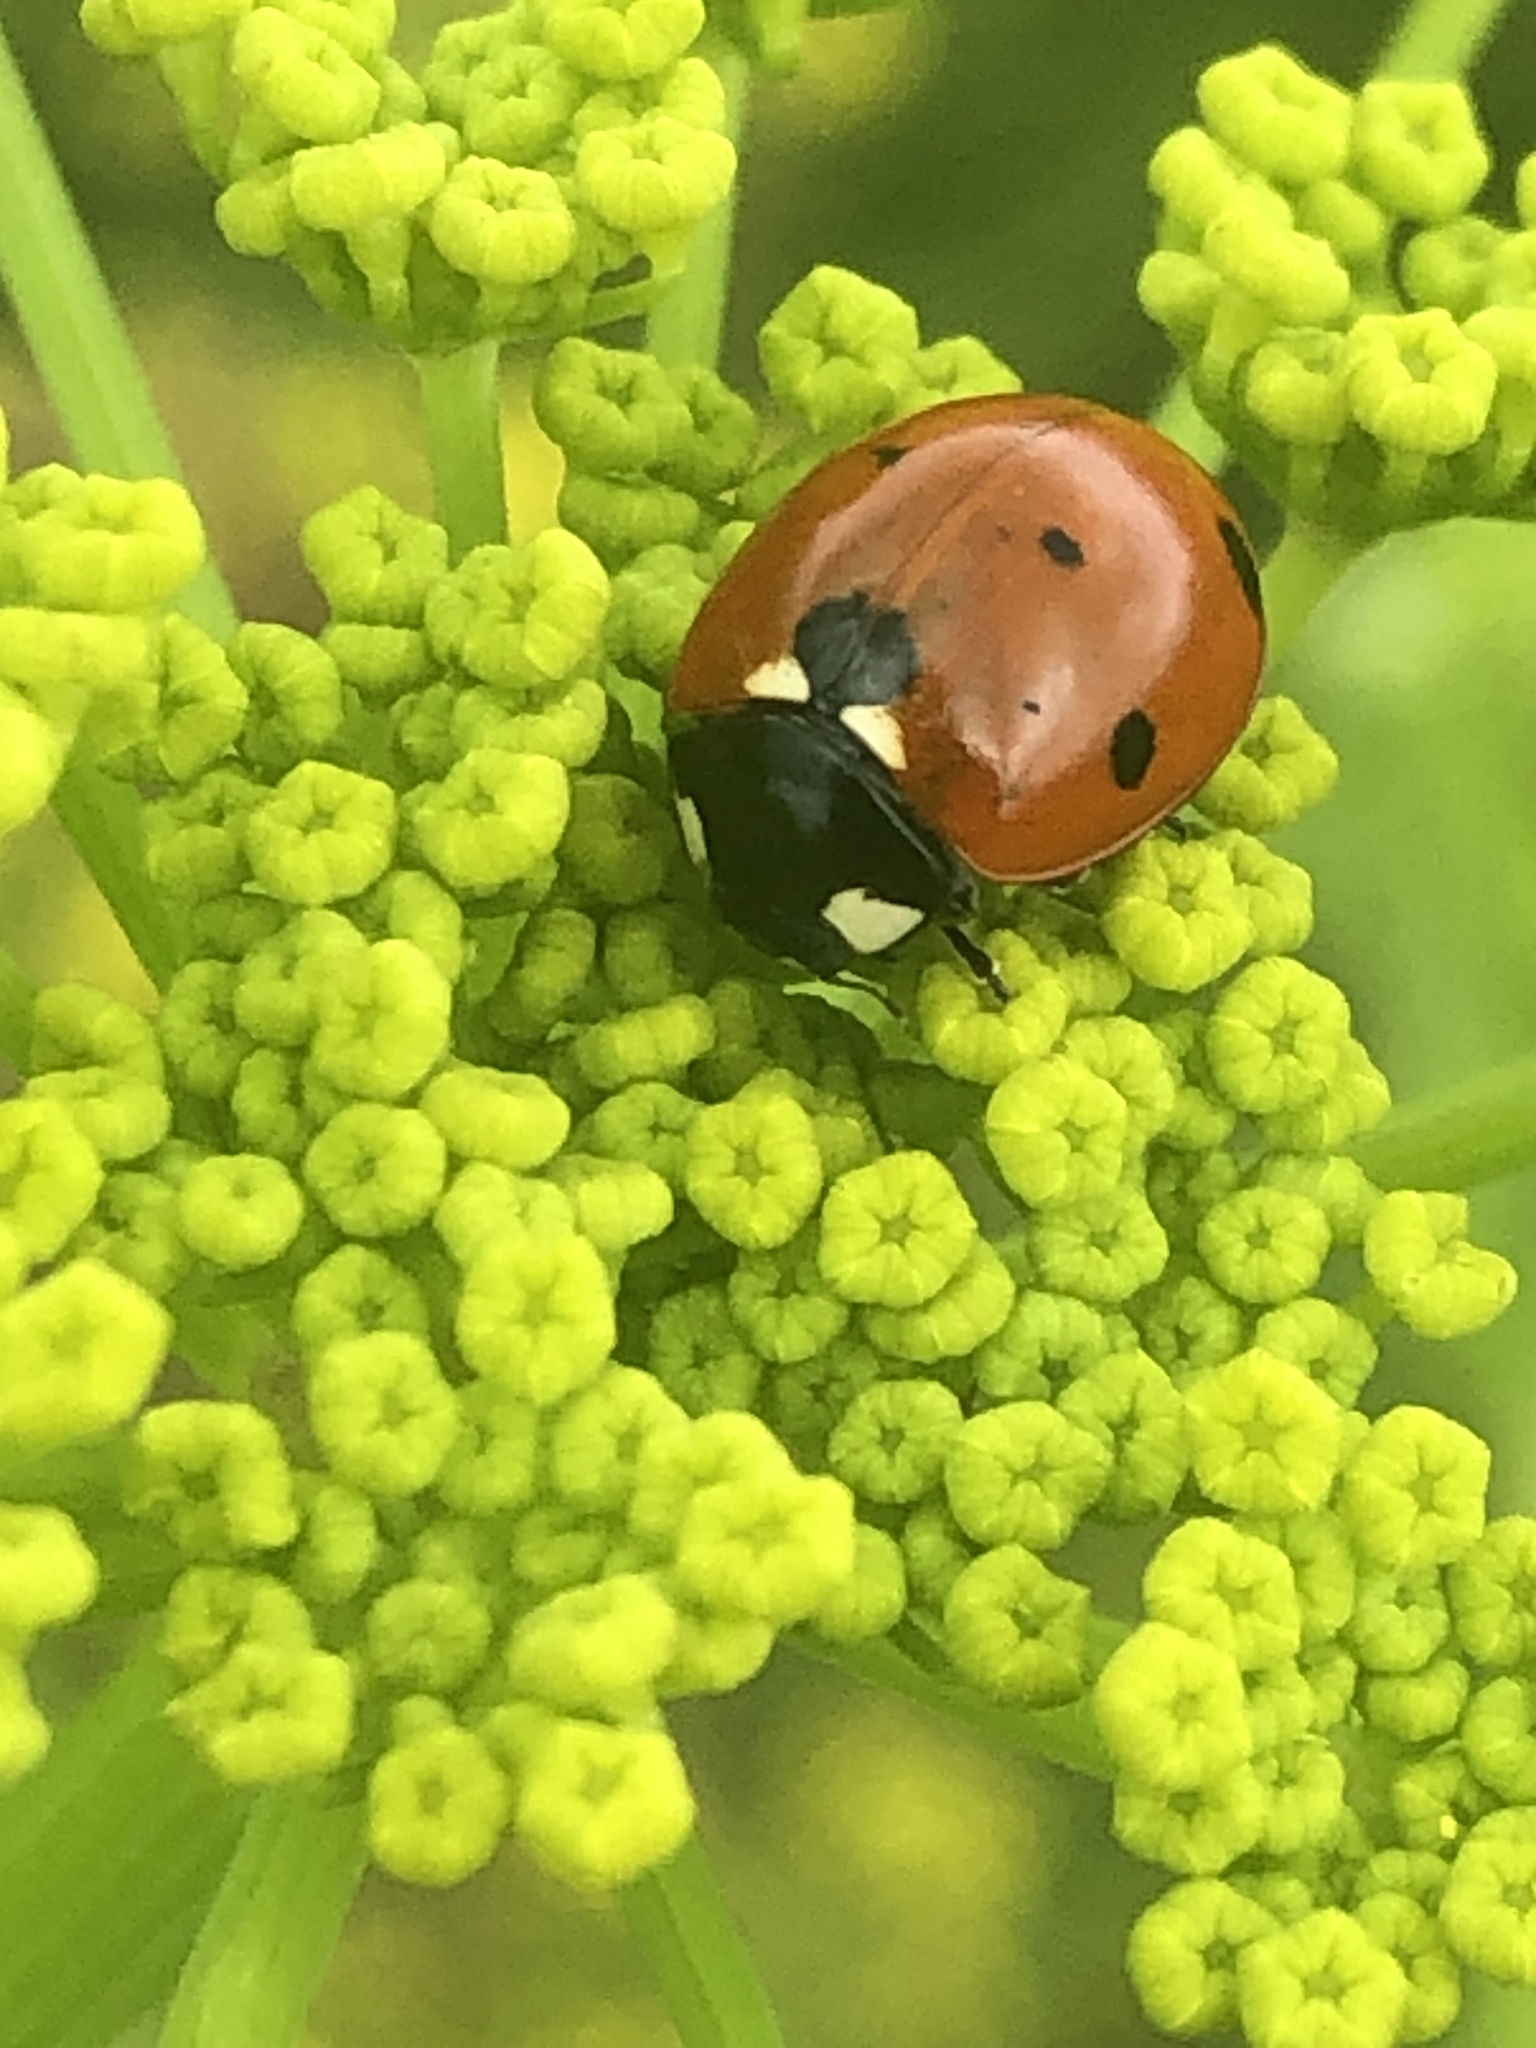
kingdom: Animalia
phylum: Arthropoda
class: Insecta
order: Coleoptera
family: Coccinellidae
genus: Coccinella
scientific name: Coccinella septempunctata
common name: Sevenspotted lady beetle
